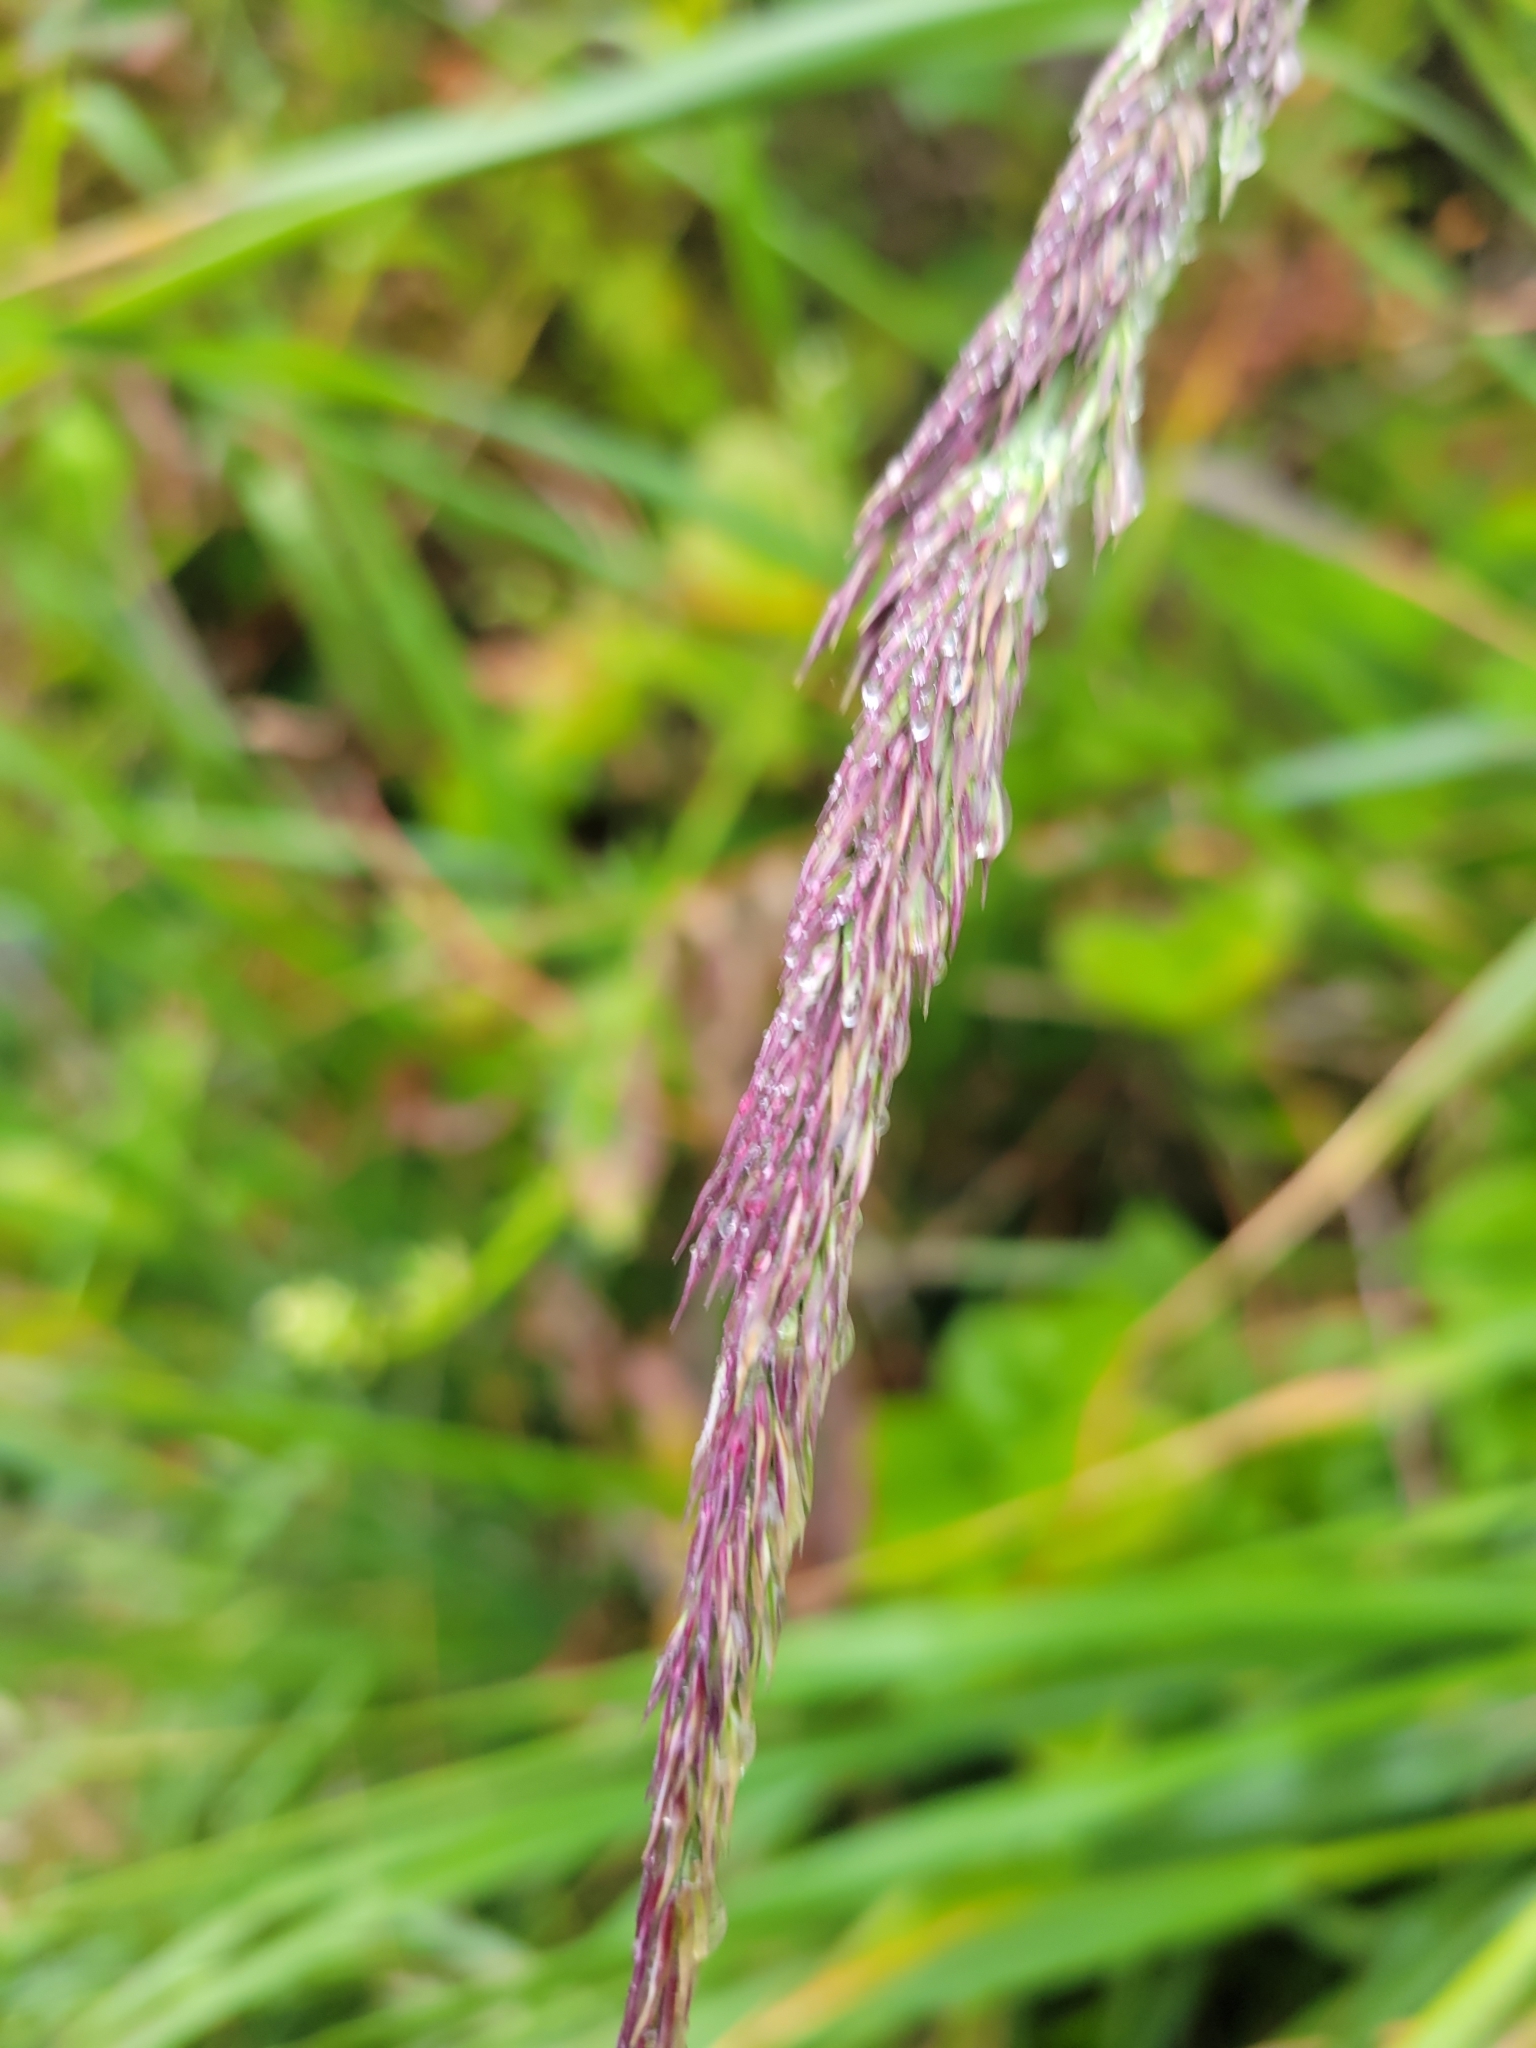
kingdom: Plantae
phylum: Tracheophyta
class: Liliopsida
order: Poales
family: Poaceae
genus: Calamagrostis
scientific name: Calamagrostis nutkaensis
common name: Pacific reed grass
